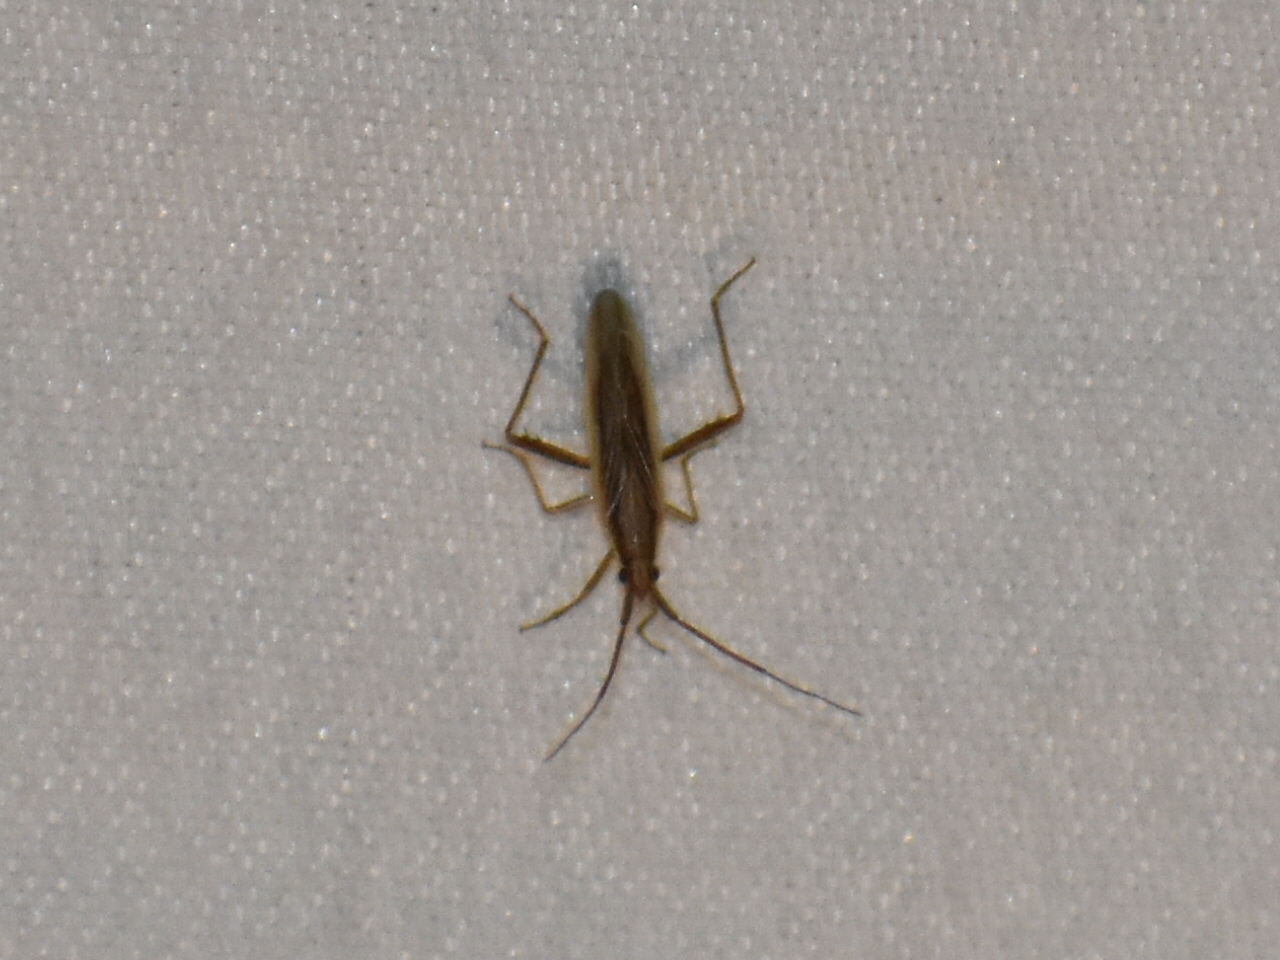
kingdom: Animalia
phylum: Arthropoda
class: Insecta
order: Hemiptera
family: Miridae
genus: Stenodema
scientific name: Stenodema trispinosa
